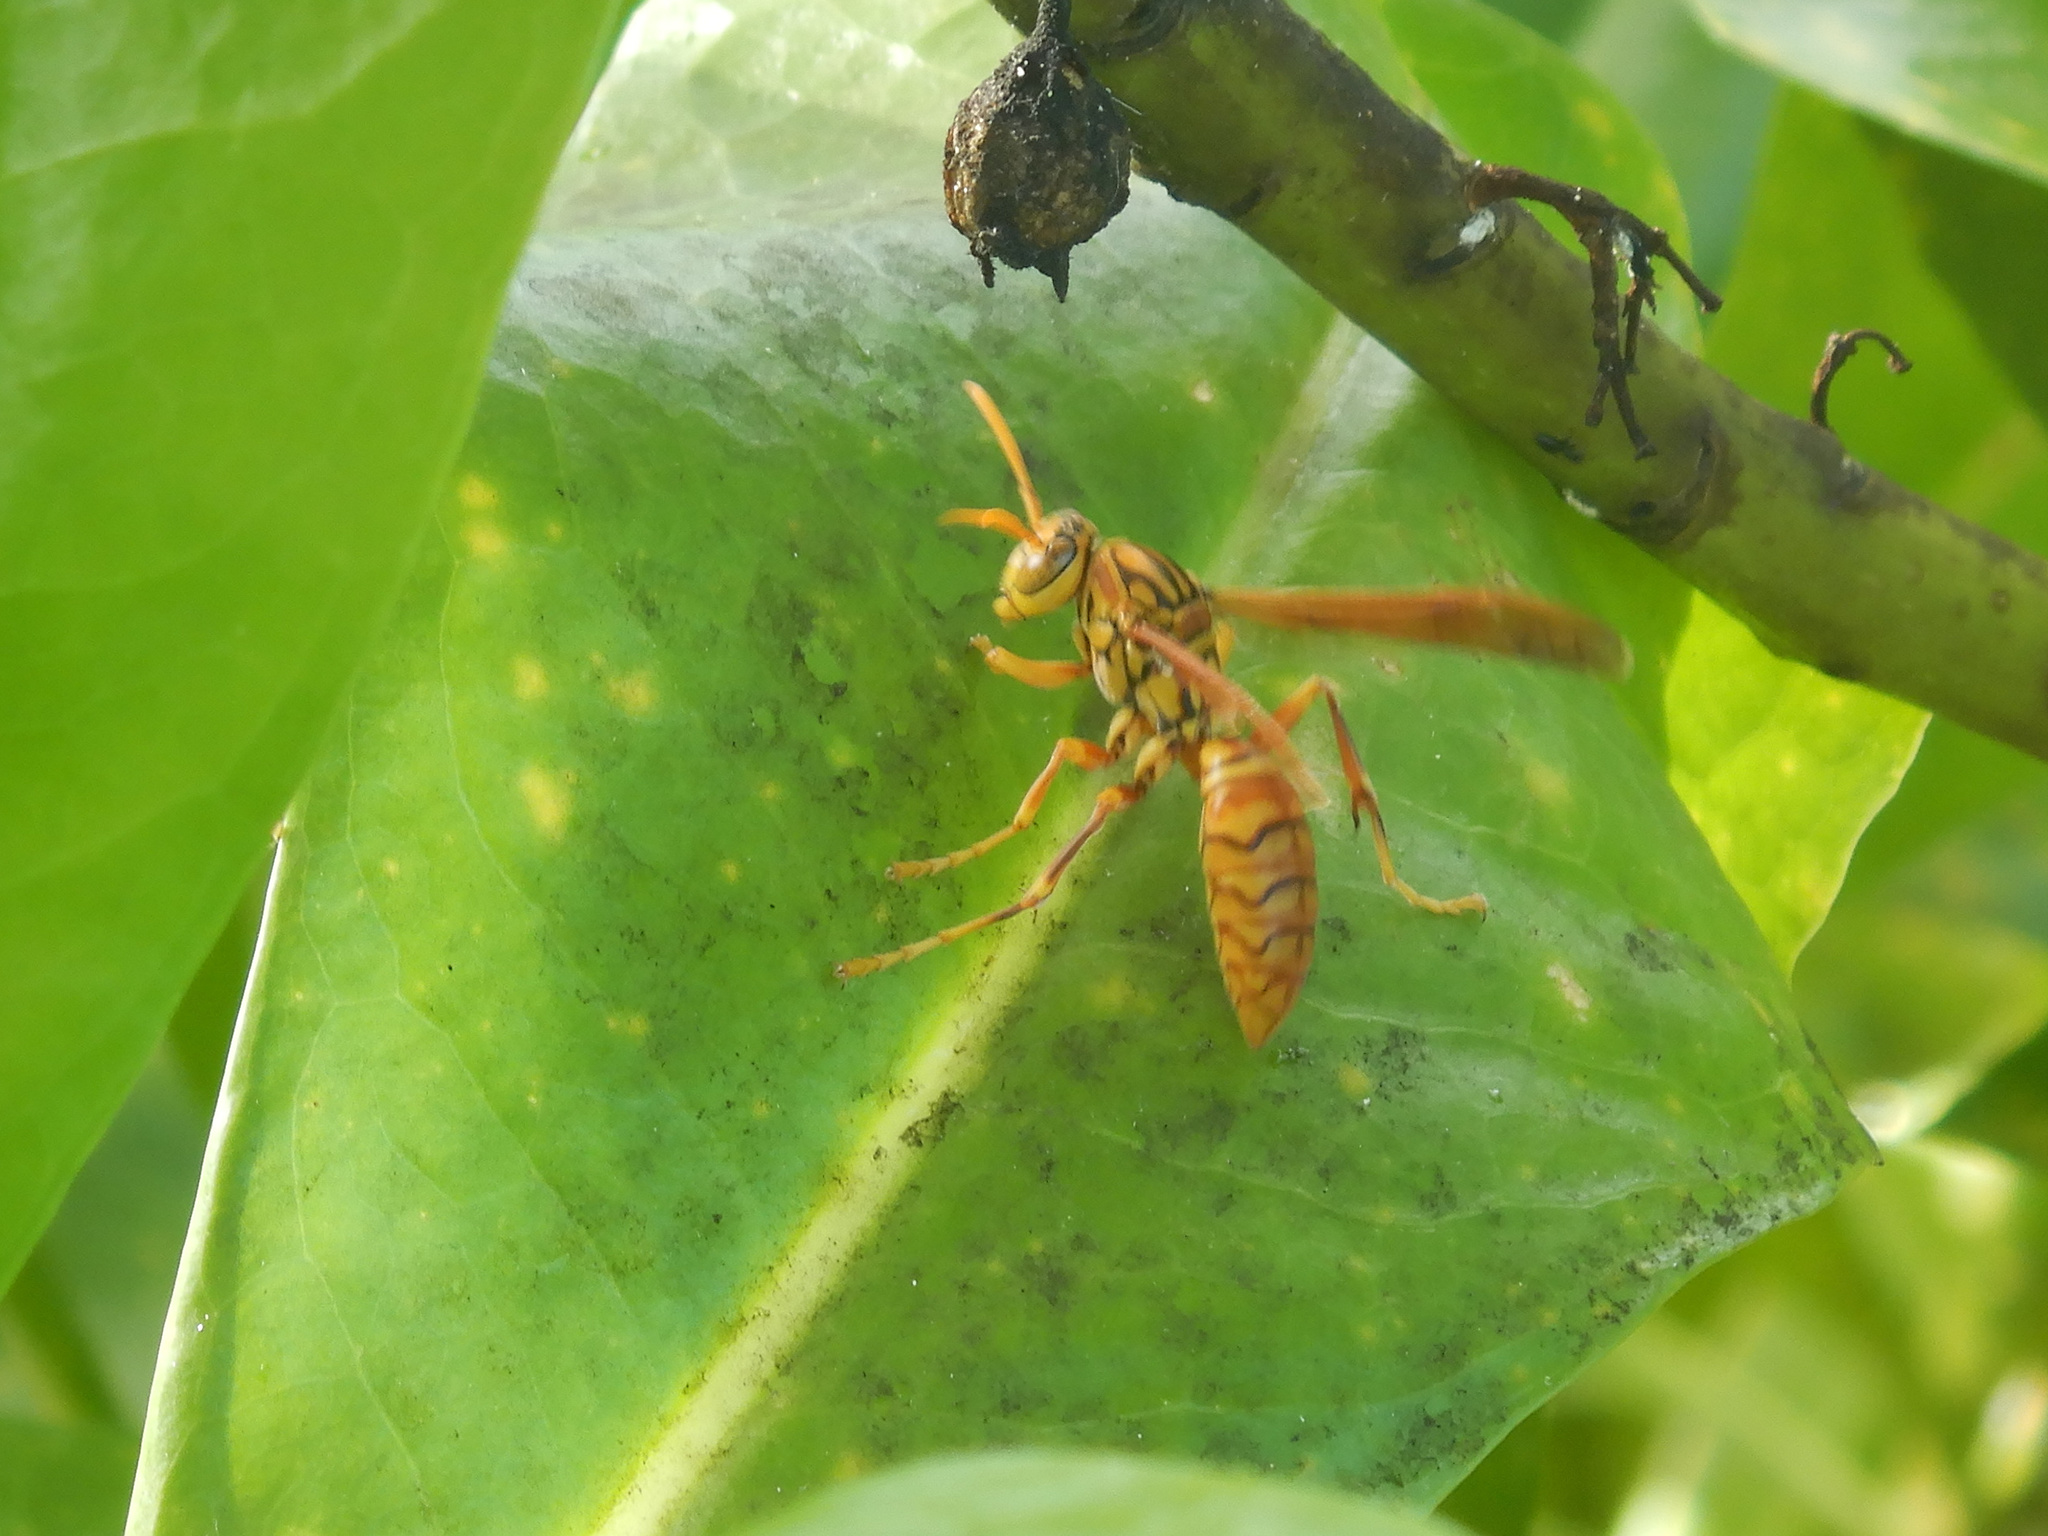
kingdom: Animalia
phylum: Arthropoda
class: Insecta
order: Hymenoptera
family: Eumenidae
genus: Polistes
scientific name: Polistes olivaceus
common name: Paper wasp
